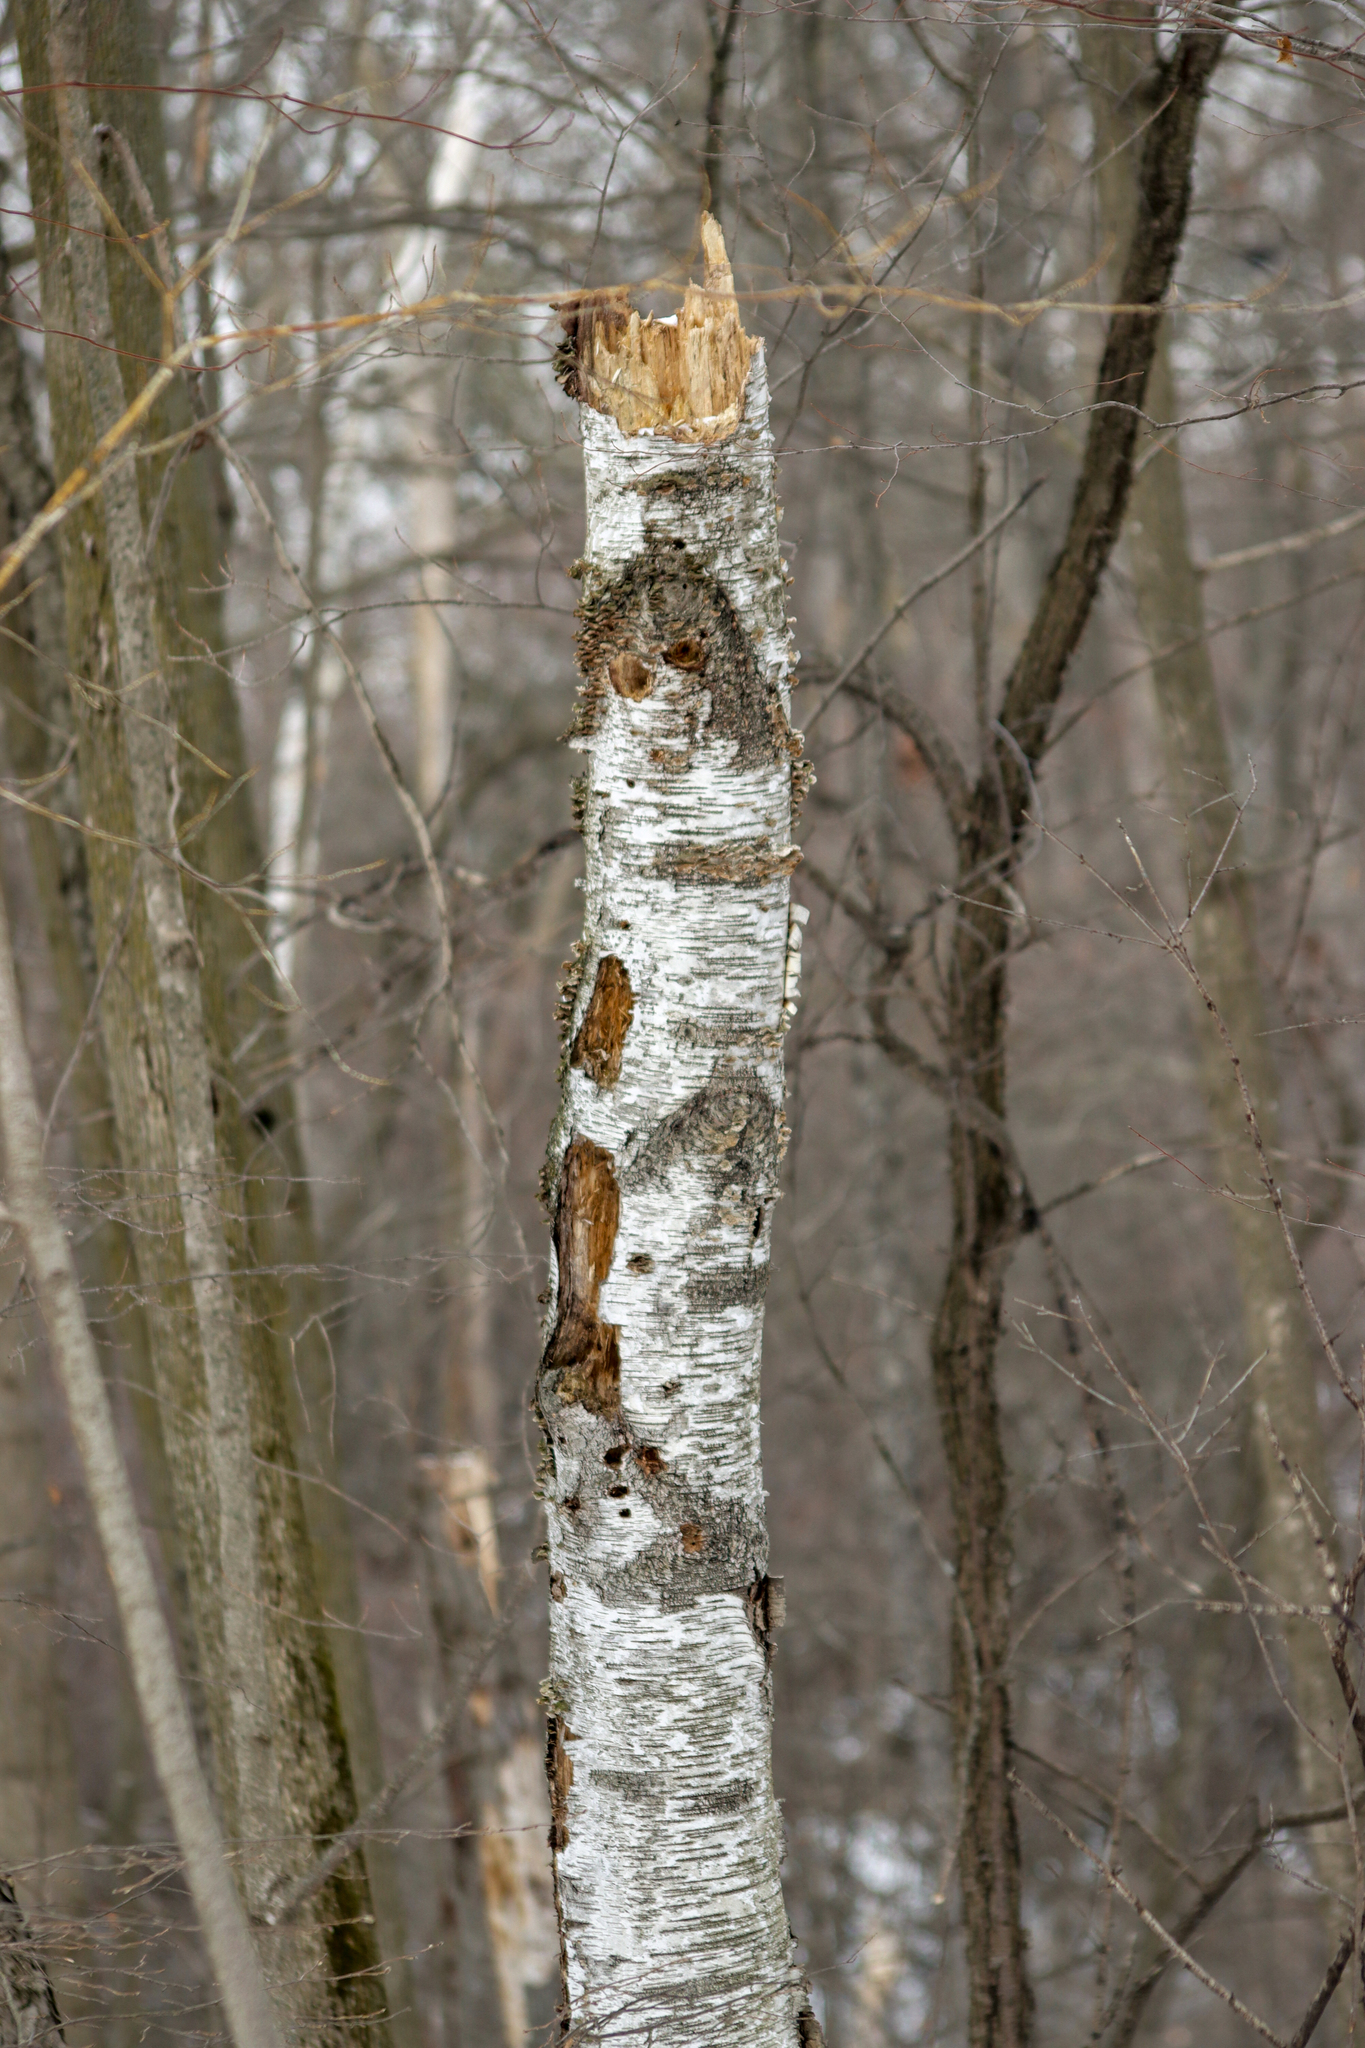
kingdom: Animalia
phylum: Chordata
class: Aves
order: Piciformes
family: Picidae
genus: Dryocopus
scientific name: Dryocopus pileatus
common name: Pileated woodpecker
